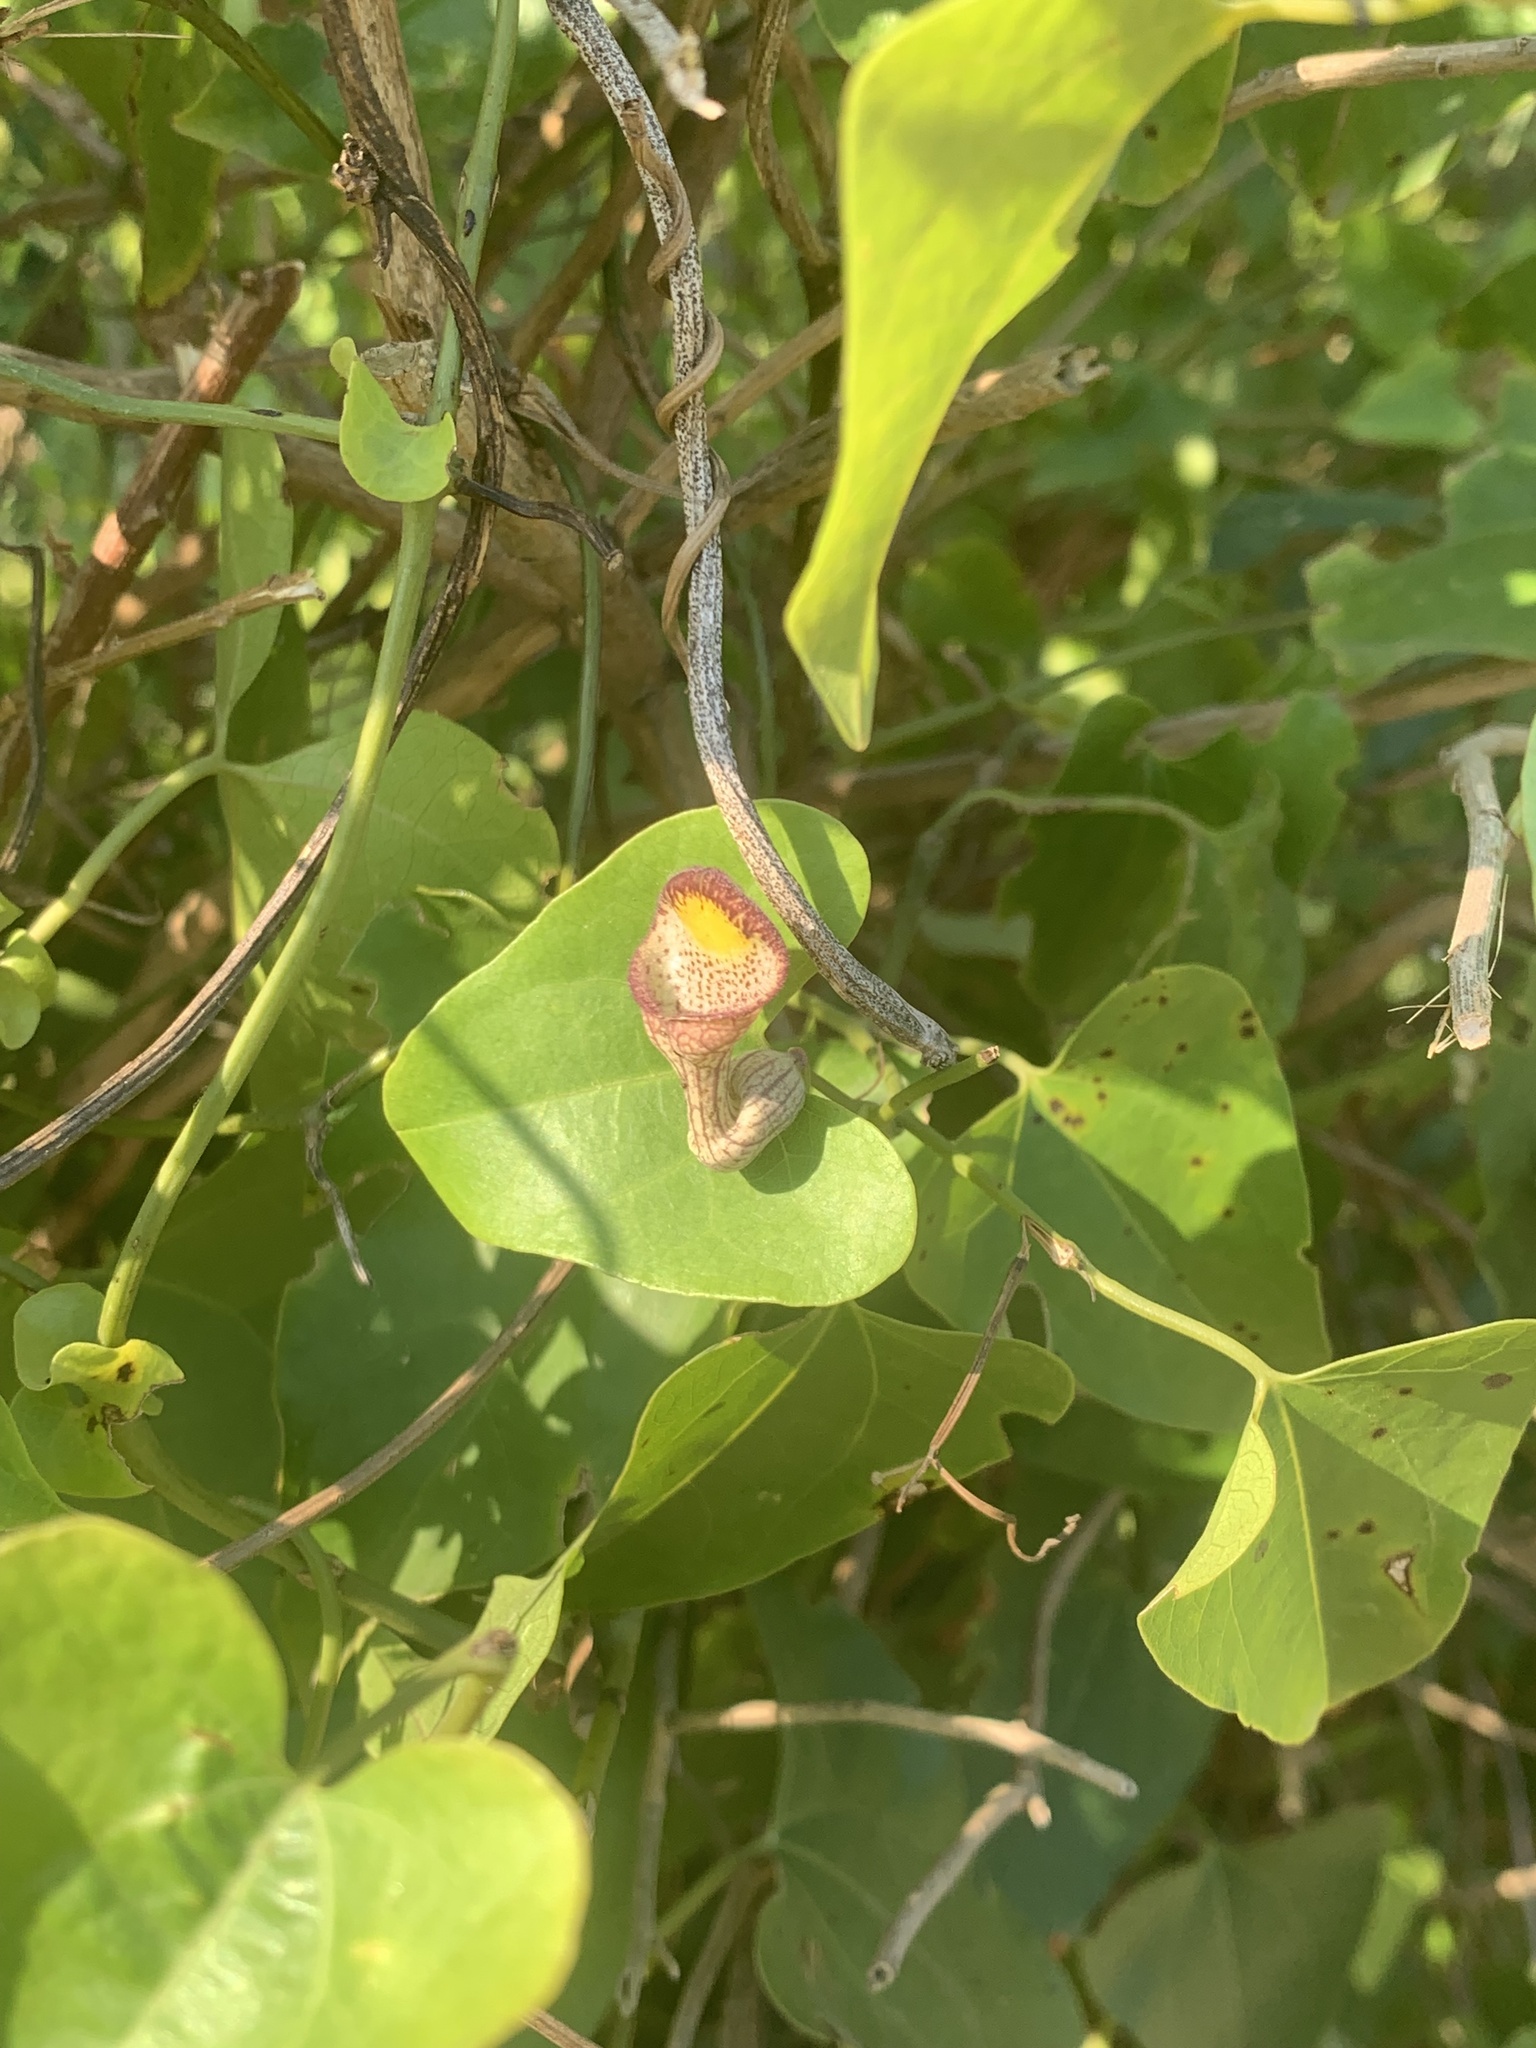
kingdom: Plantae
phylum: Tracheophyta
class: Magnoliopsida
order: Piperales
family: Aristolochiaceae
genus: Aristolochia
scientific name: Aristolochia triangularis
